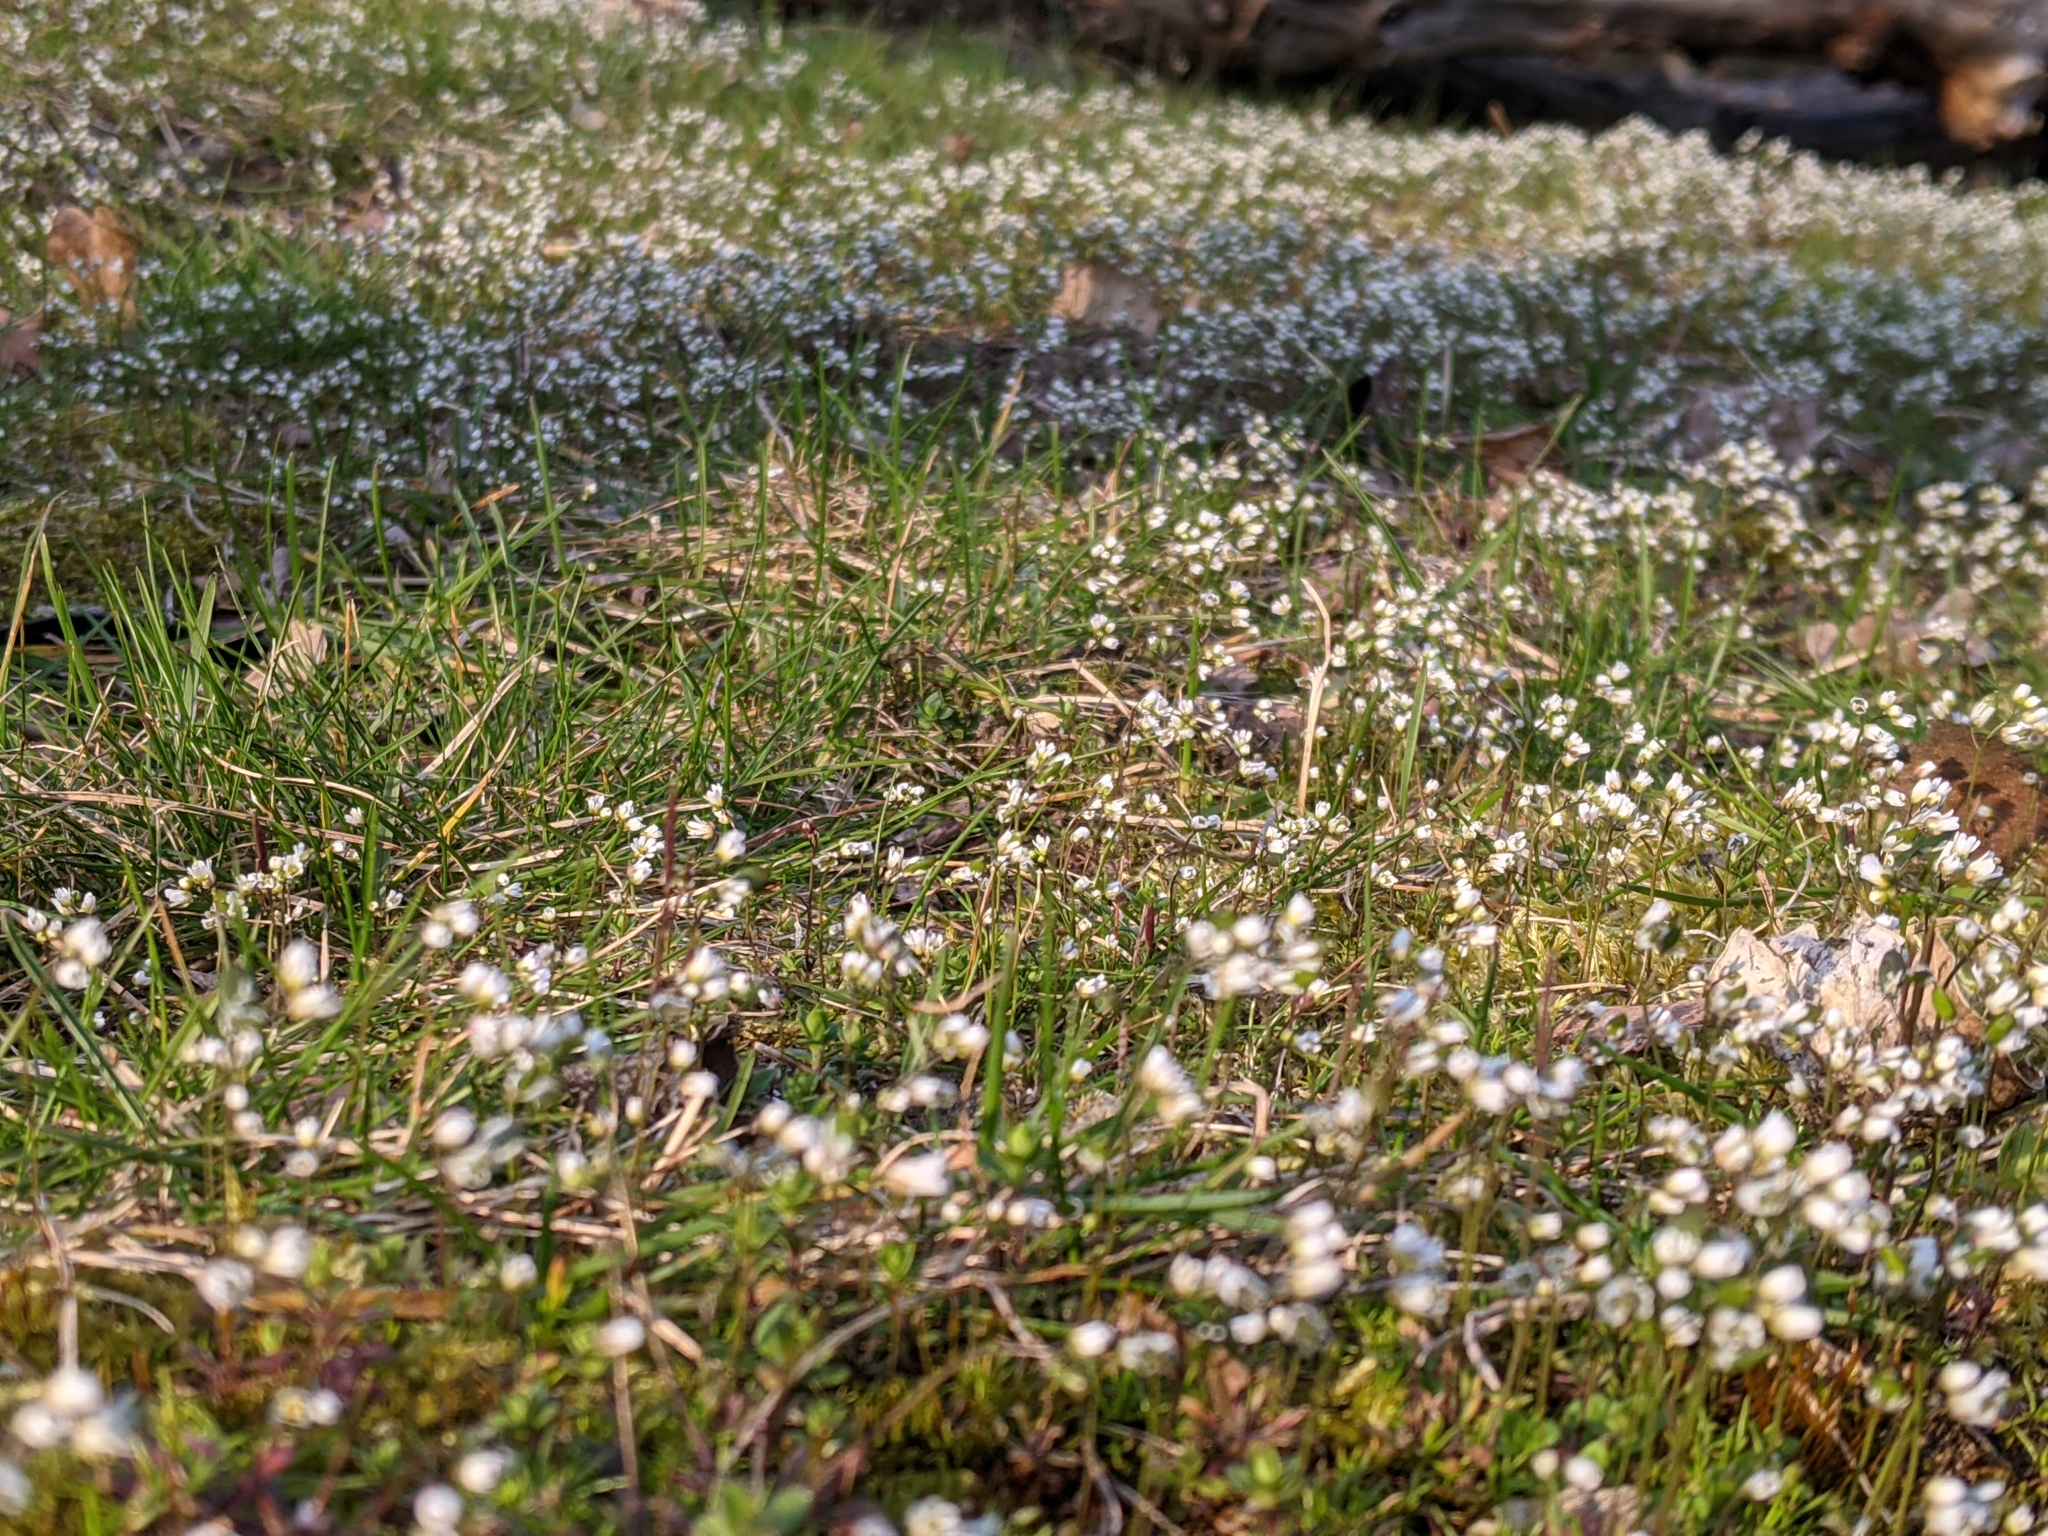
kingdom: Plantae
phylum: Tracheophyta
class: Magnoliopsida
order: Brassicales
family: Brassicaceae
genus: Draba
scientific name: Draba verna
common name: Spring draba
